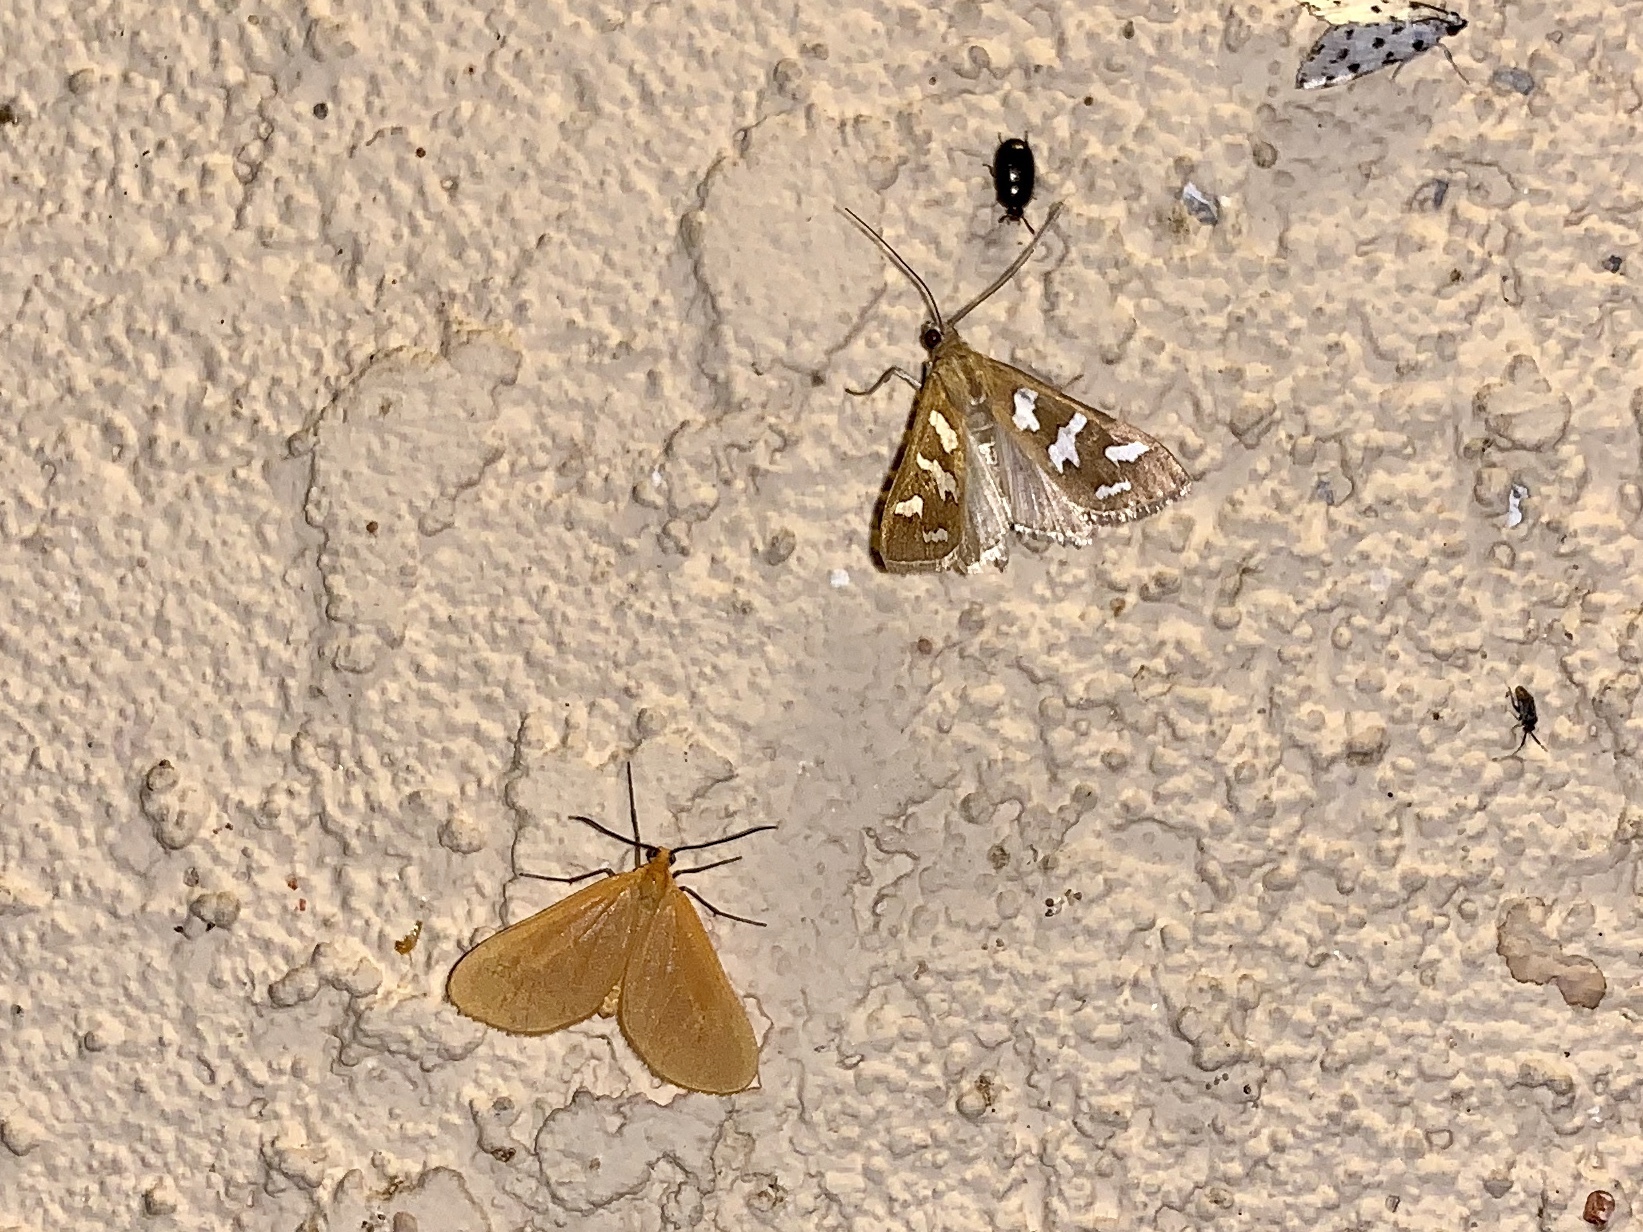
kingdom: Animalia
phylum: Arthropoda
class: Insecta
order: Lepidoptera
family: Crambidae
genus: Diastictis
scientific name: Diastictis fracturalis
